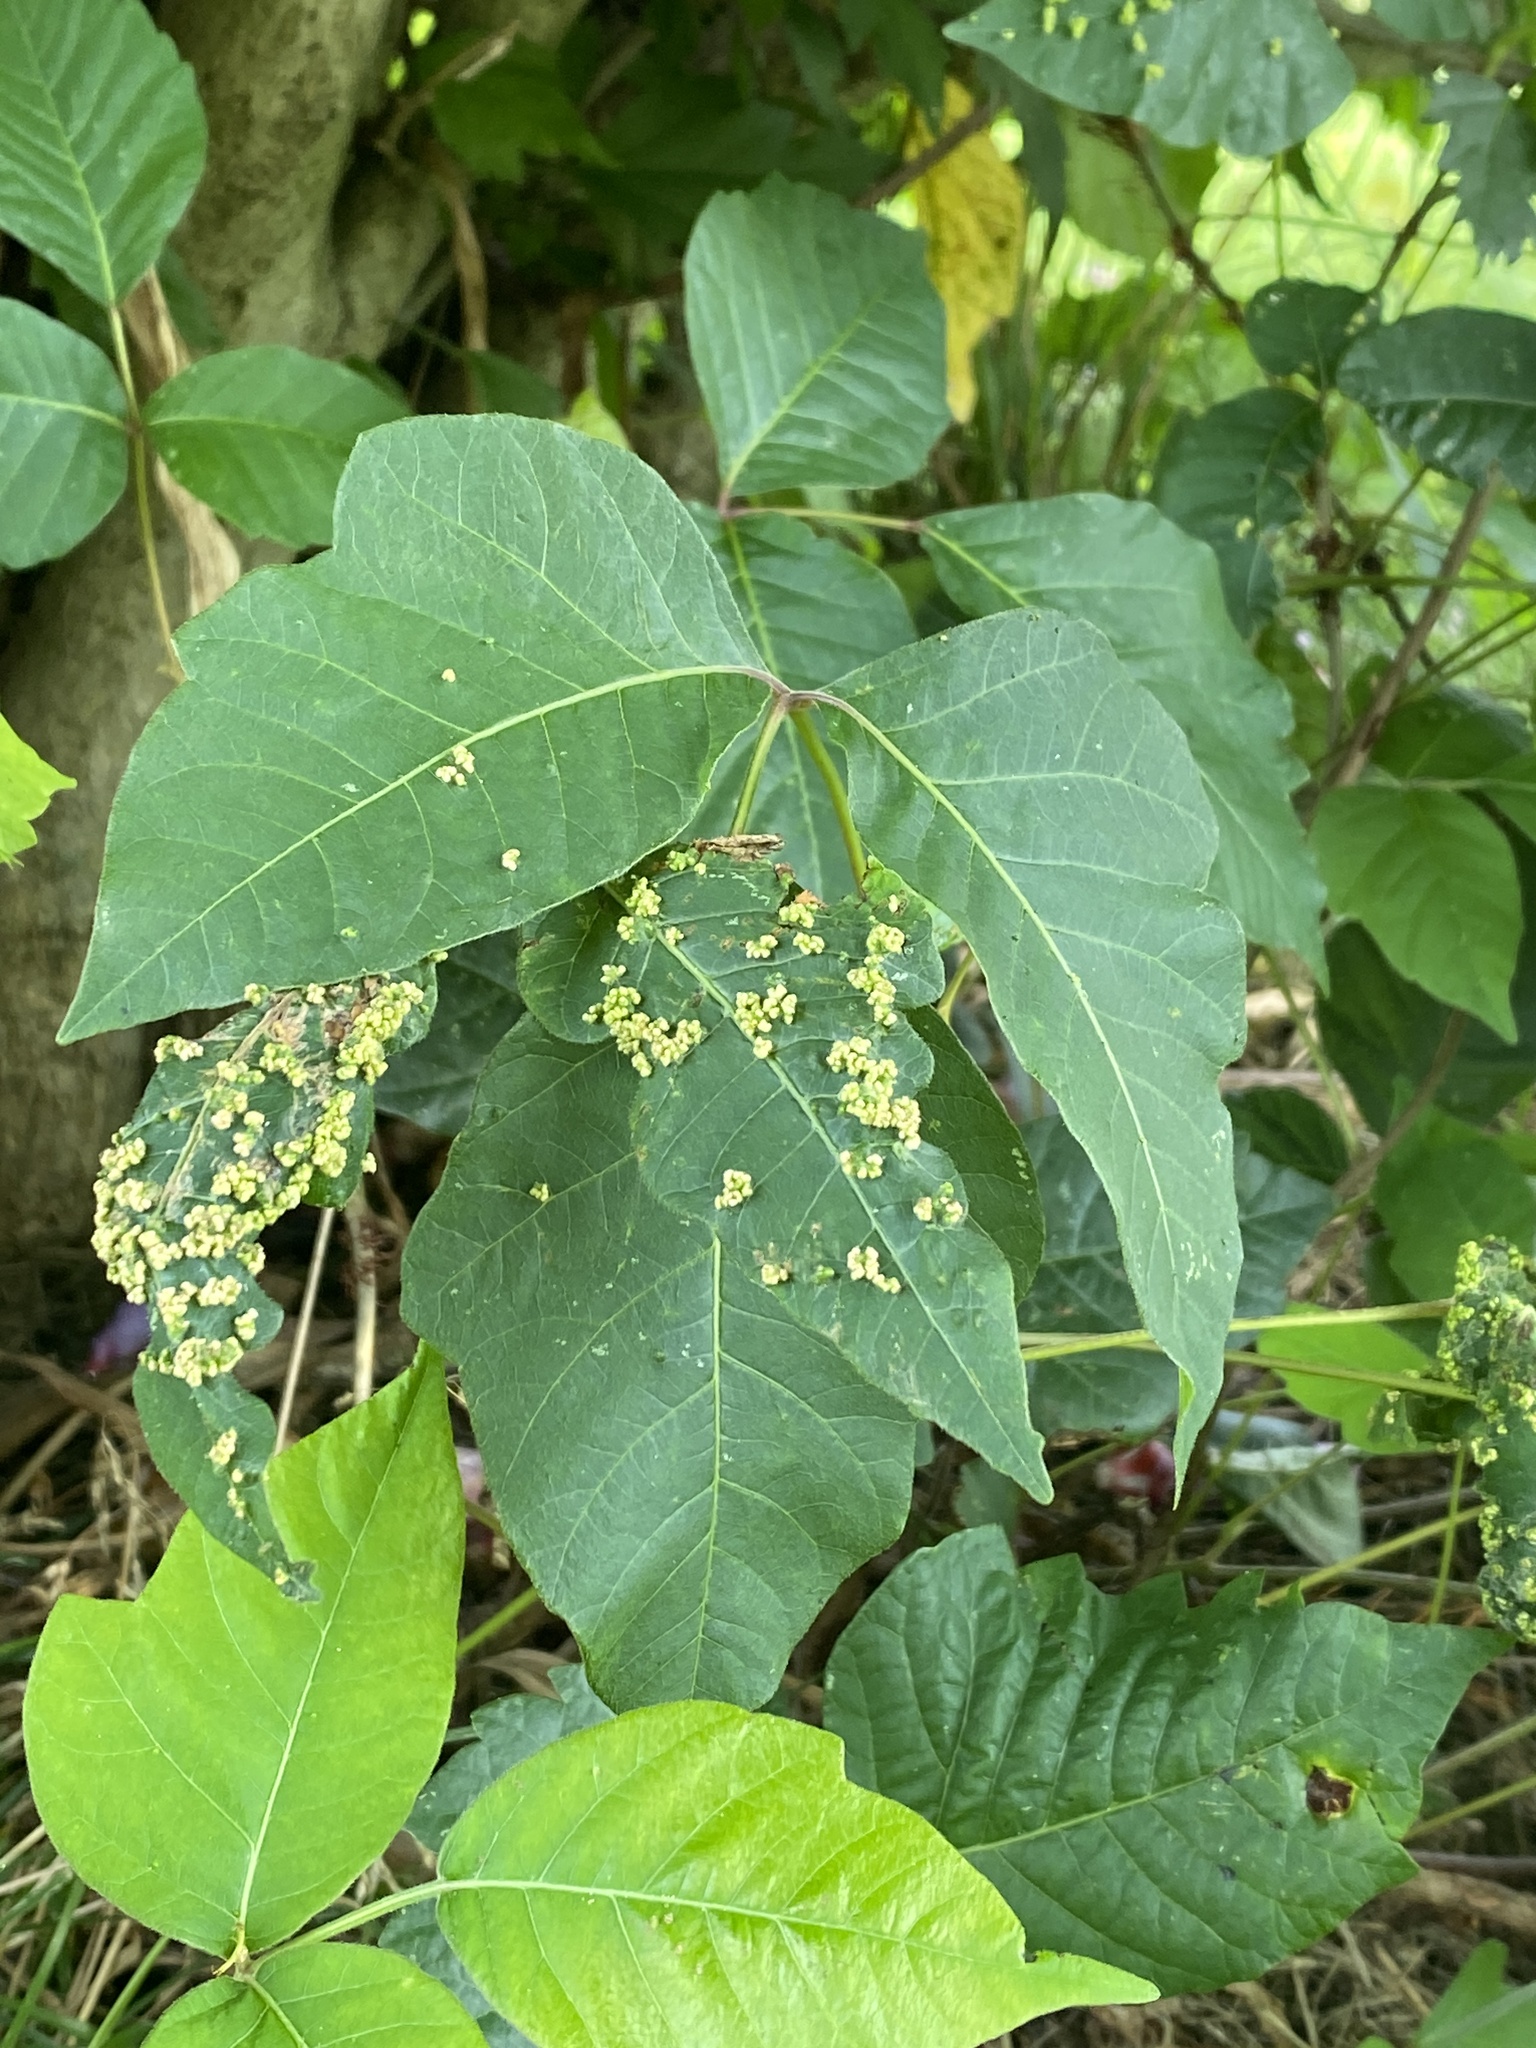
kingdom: Animalia
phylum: Arthropoda
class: Arachnida
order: Trombidiformes
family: Eriophyidae
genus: Aculops
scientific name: Aculops
